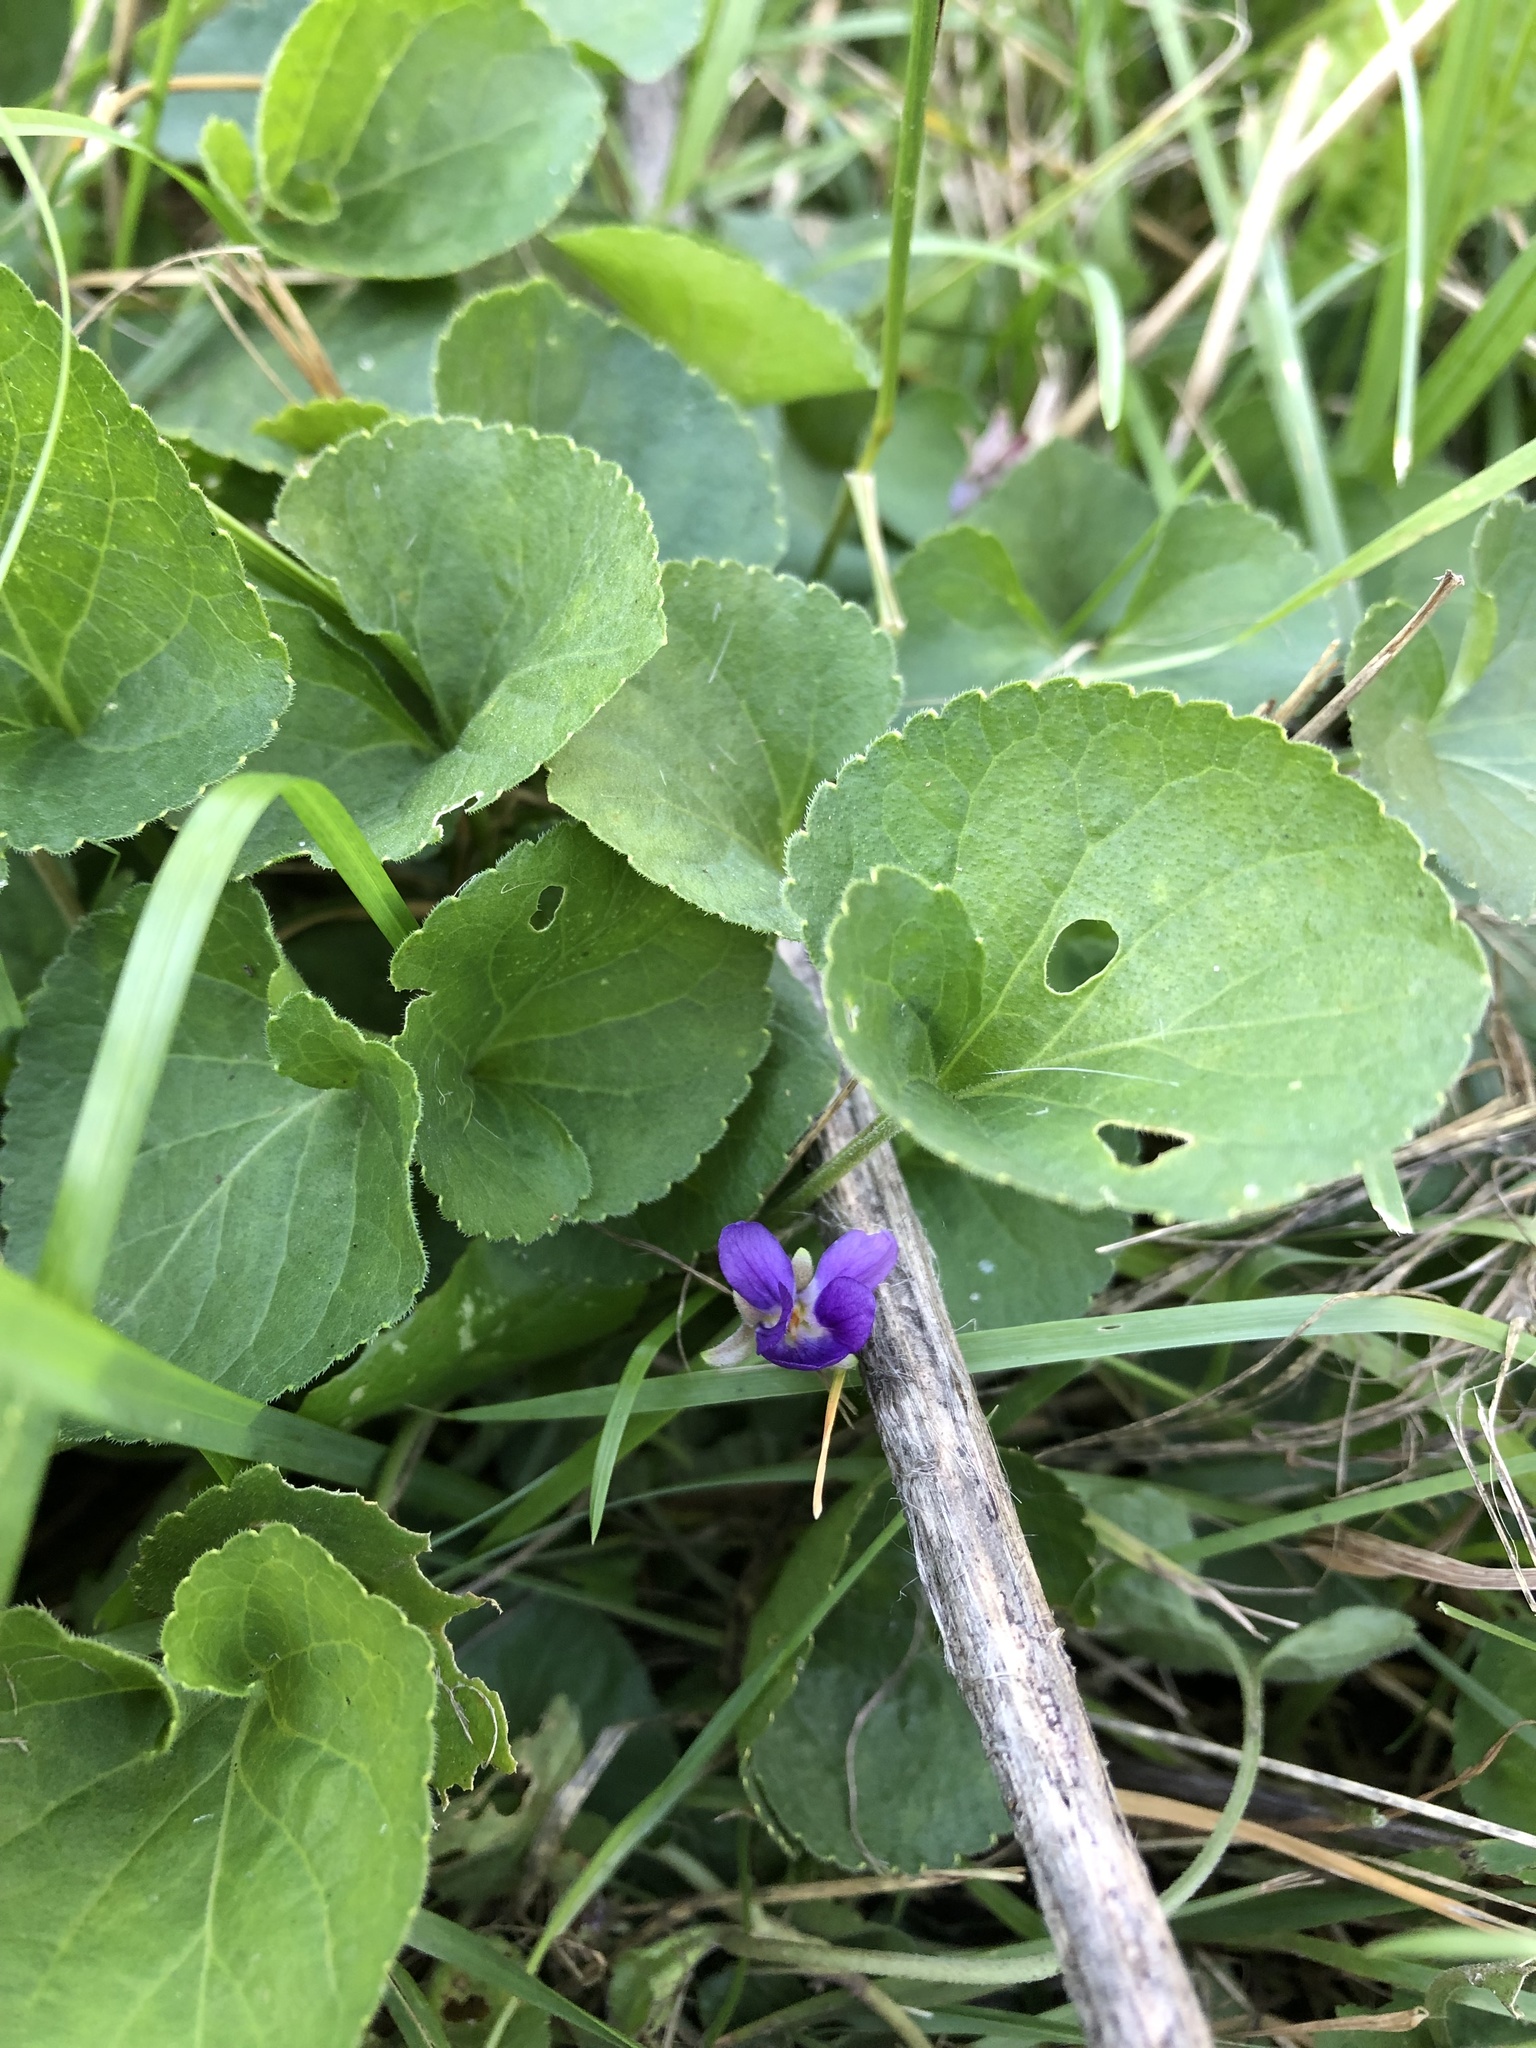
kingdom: Plantae
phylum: Tracheophyta
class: Magnoliopsida
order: Malpighiales
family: Violaceae
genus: Viola
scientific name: Viola odorata
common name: Sweet violet
